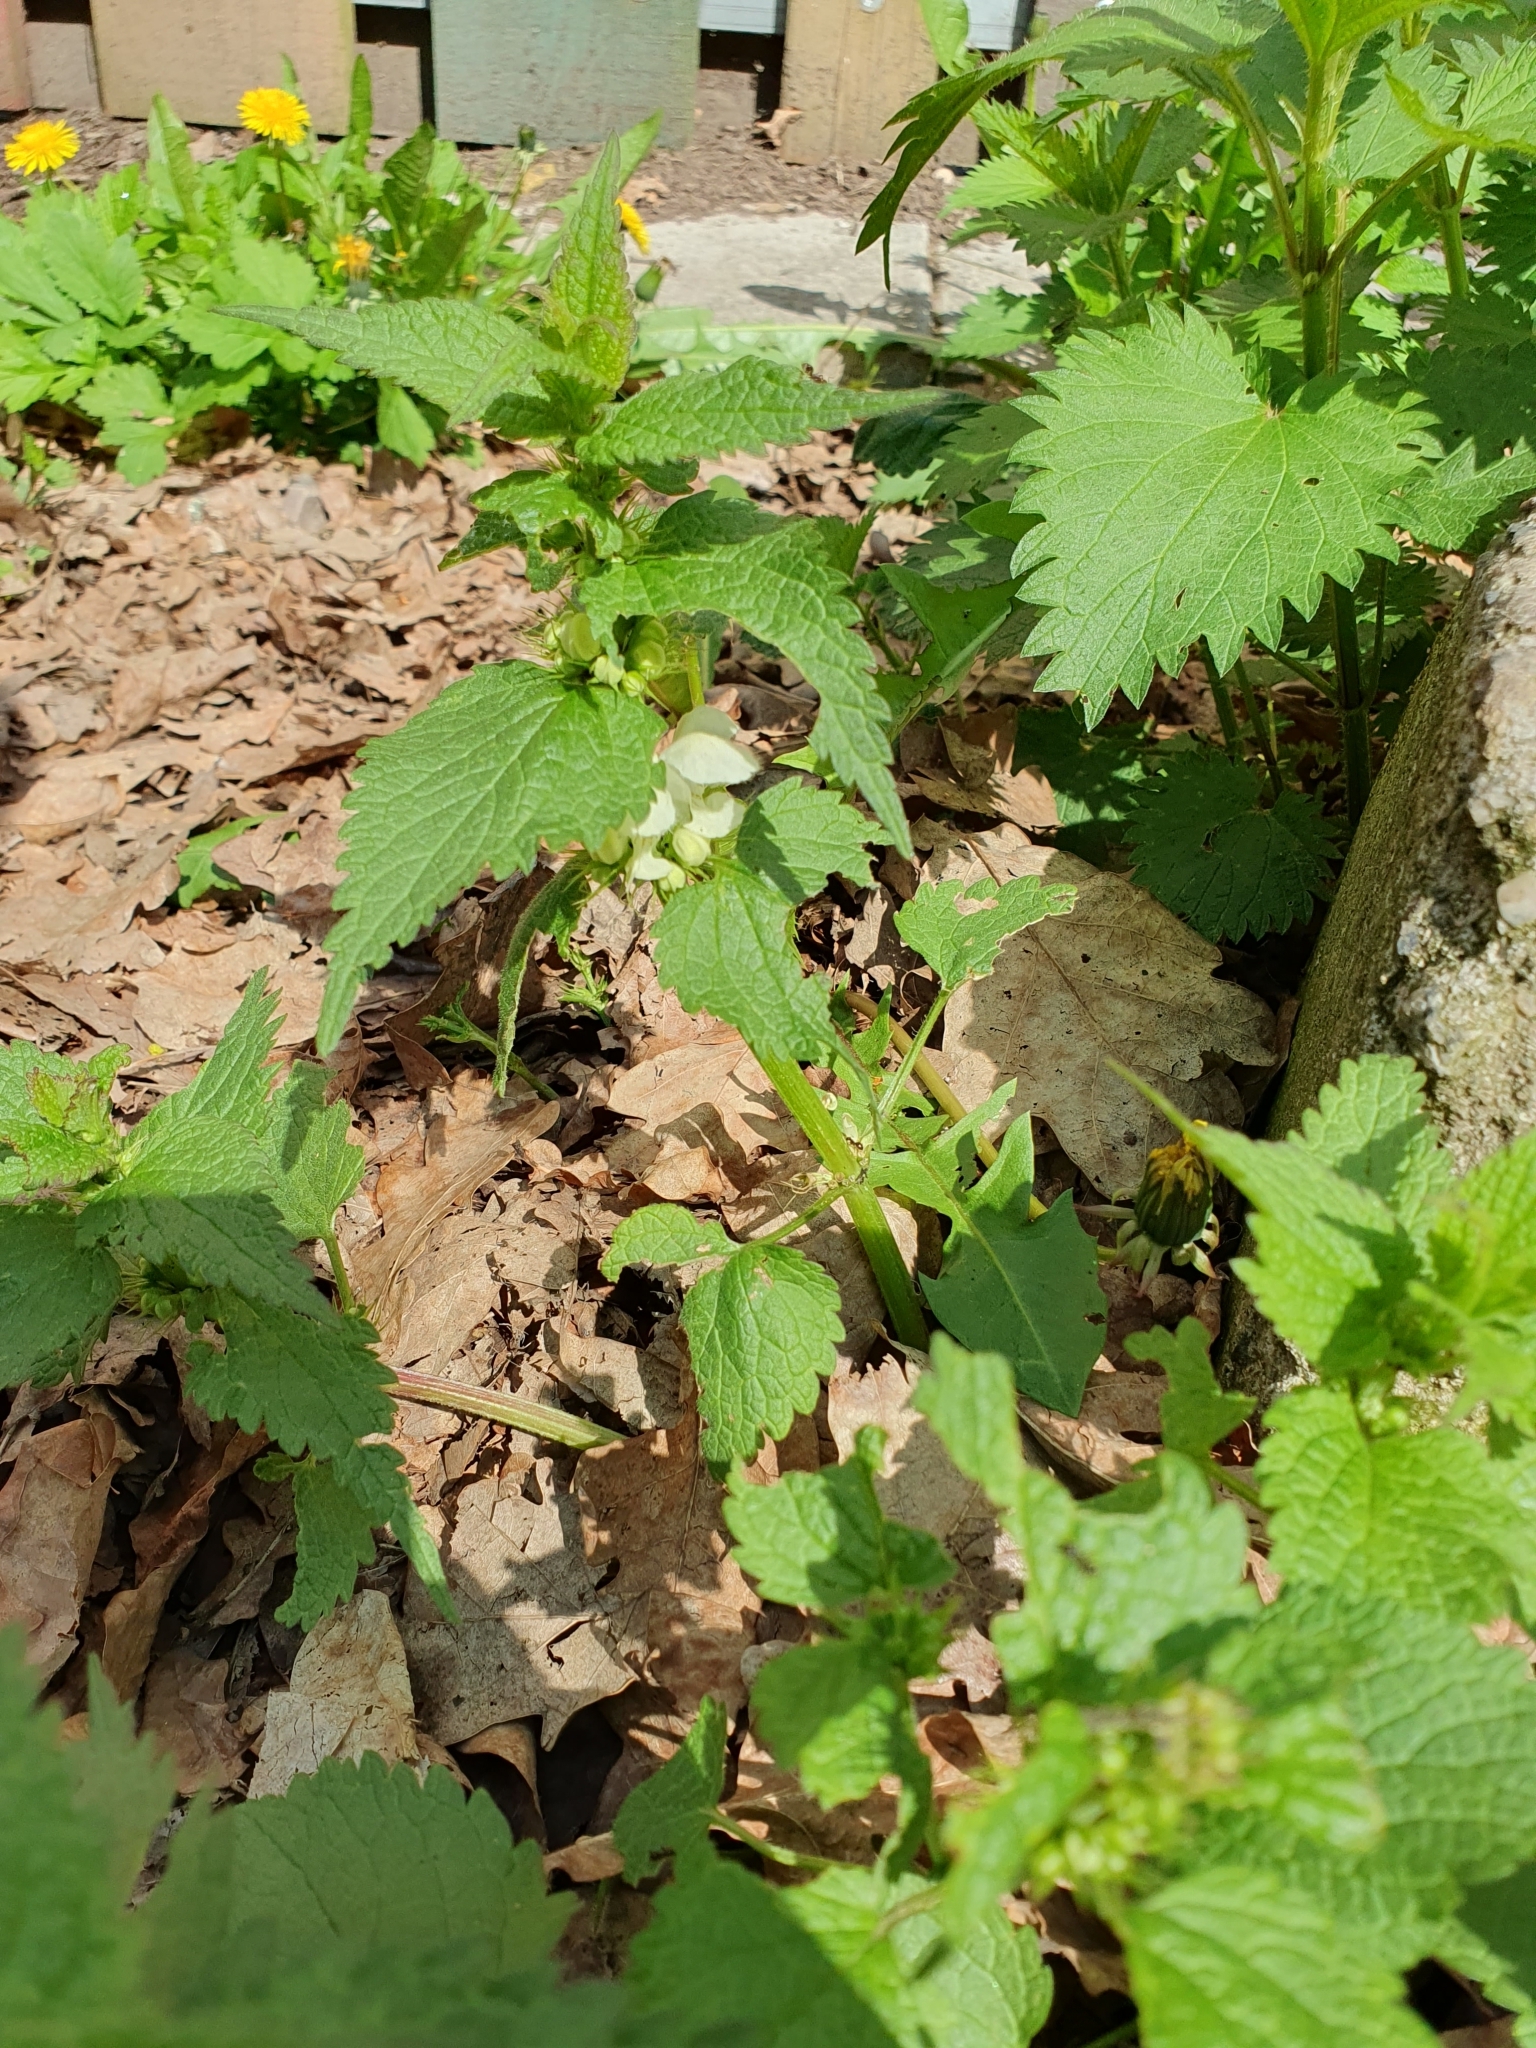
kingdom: Plantae
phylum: Tracheophyta
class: Magnoliopsida
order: Lamiales
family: Lamiaceae
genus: Lamium
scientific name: Lamium album
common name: White dead-nettle
